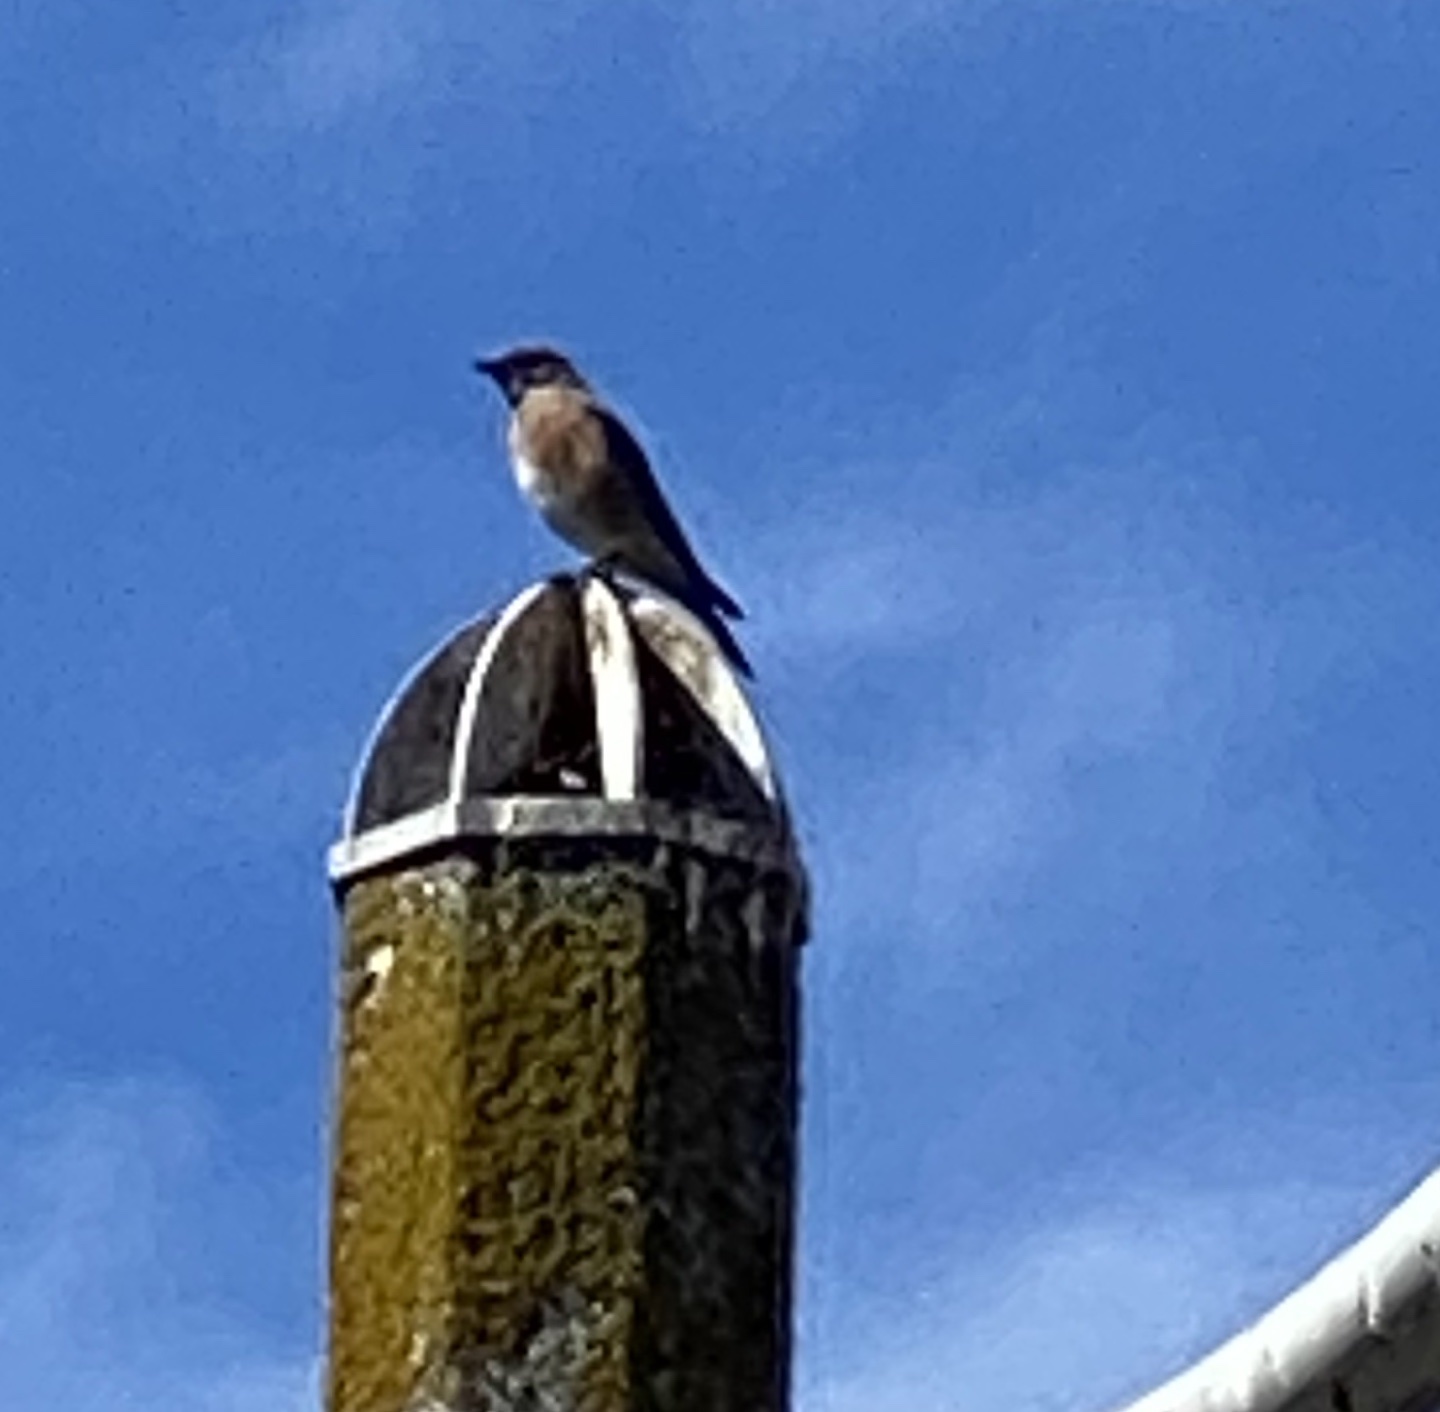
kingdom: Animalia
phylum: Chordata
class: Aves
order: Passeriformes
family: Turdidae
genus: Sialia
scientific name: Sialia mexicana
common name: Western bluebird
